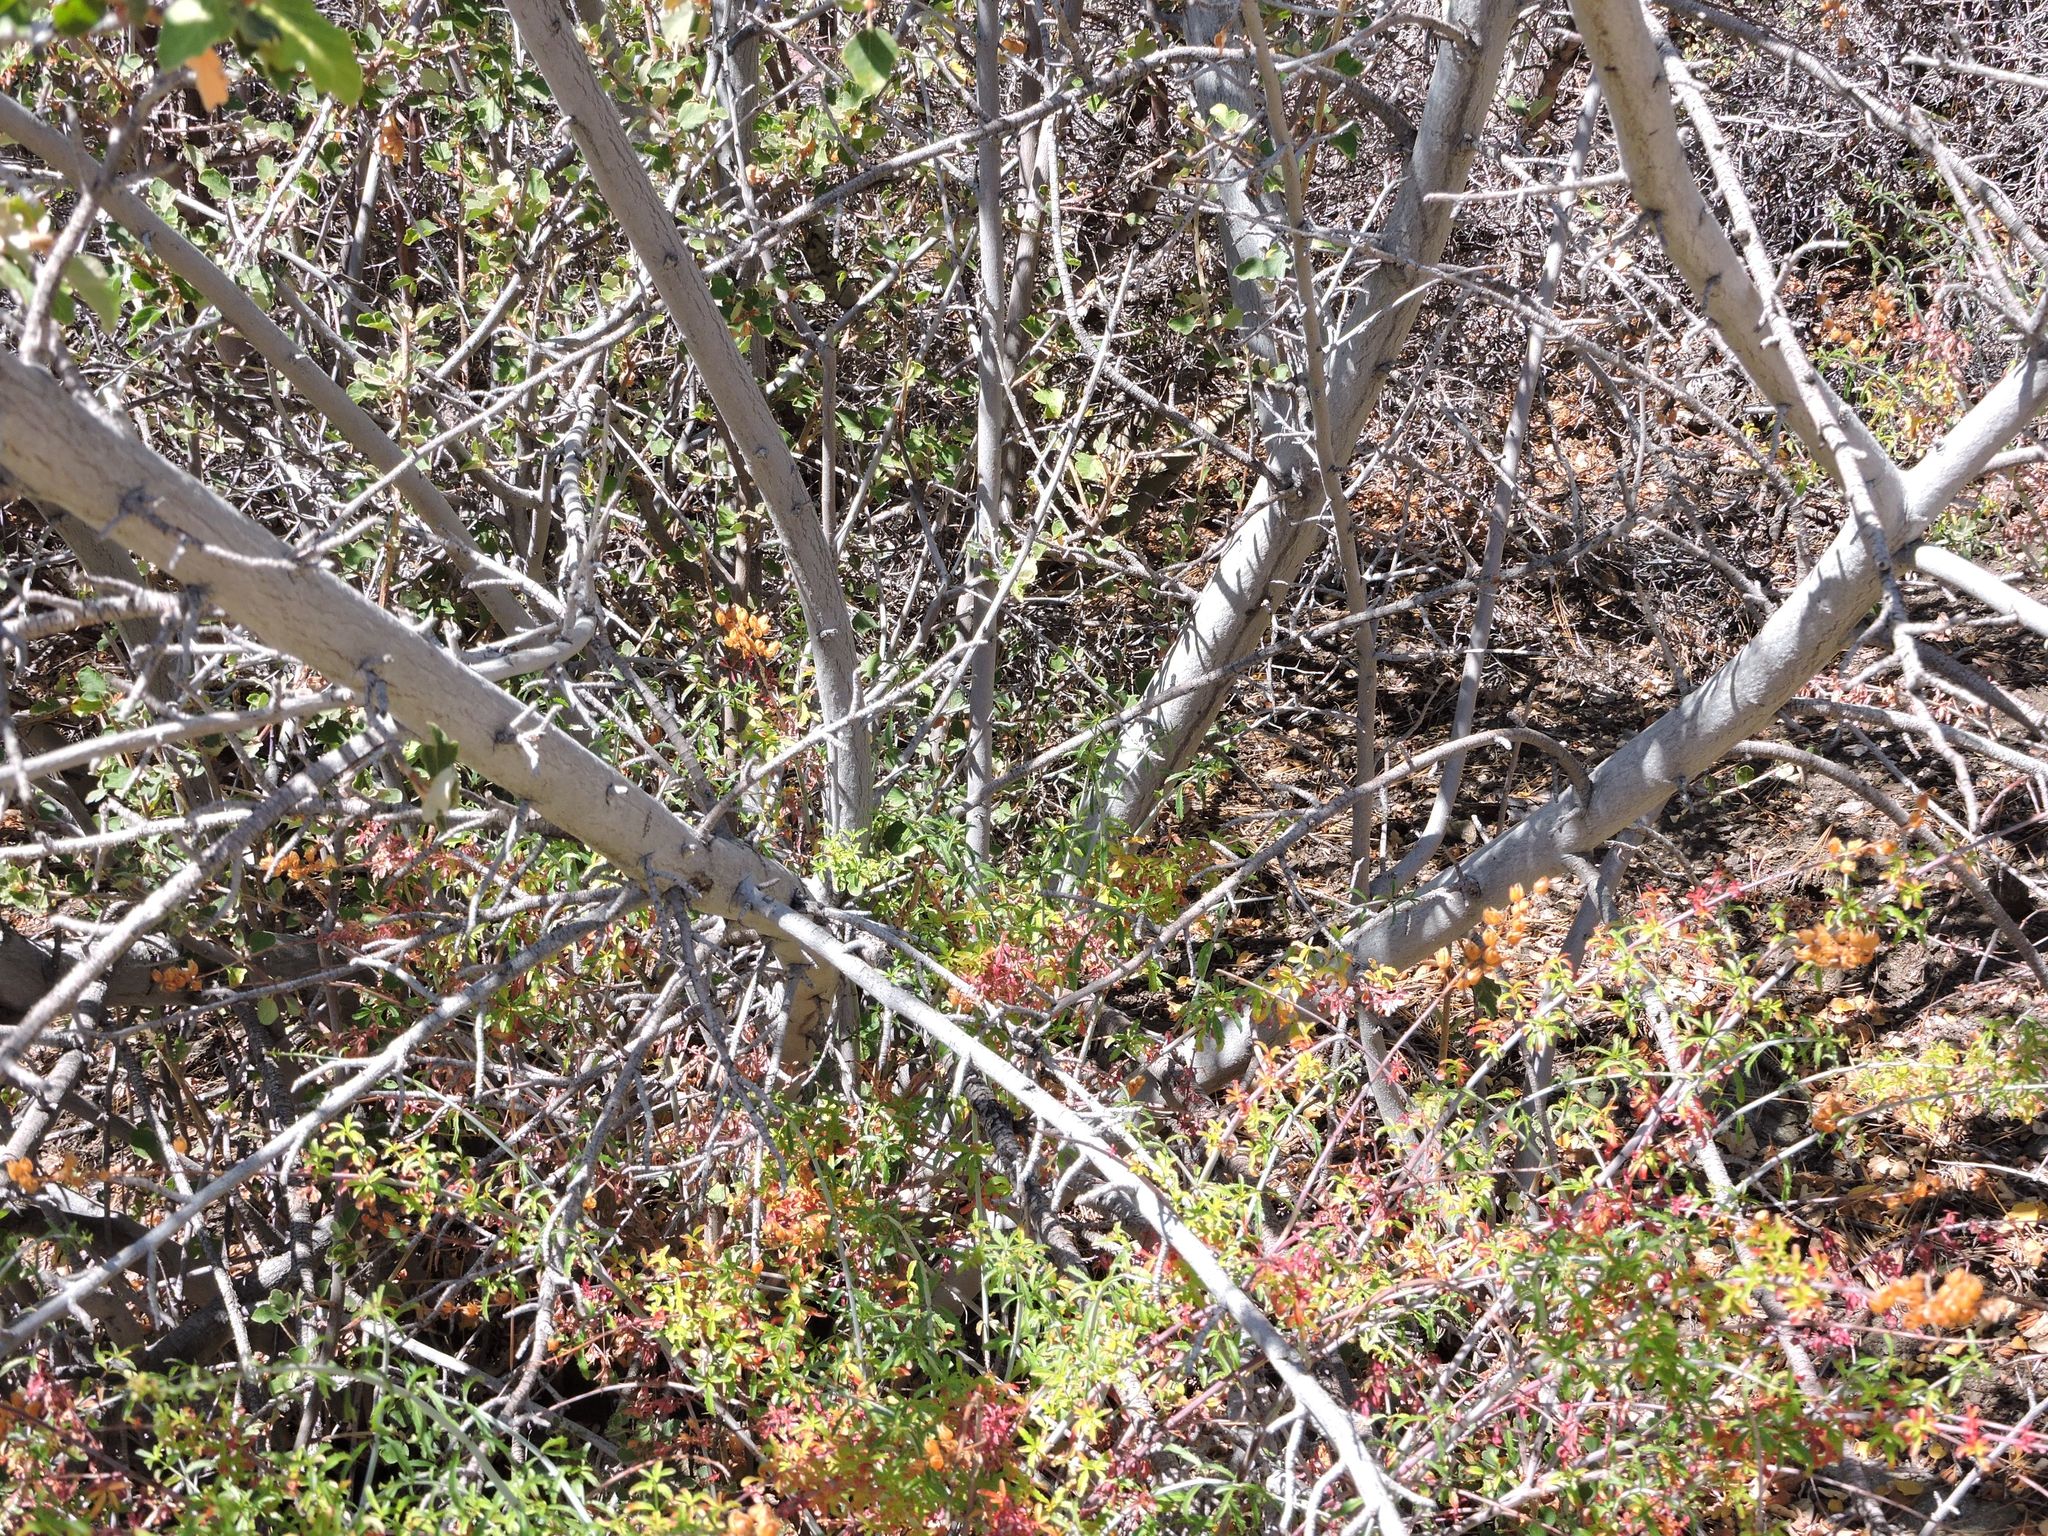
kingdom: Plantae
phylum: Tracheophyta
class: Magnoliopsida
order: Malvales
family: Malvaceae
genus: Fremontodendron
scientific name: Fremontodendron californicum
